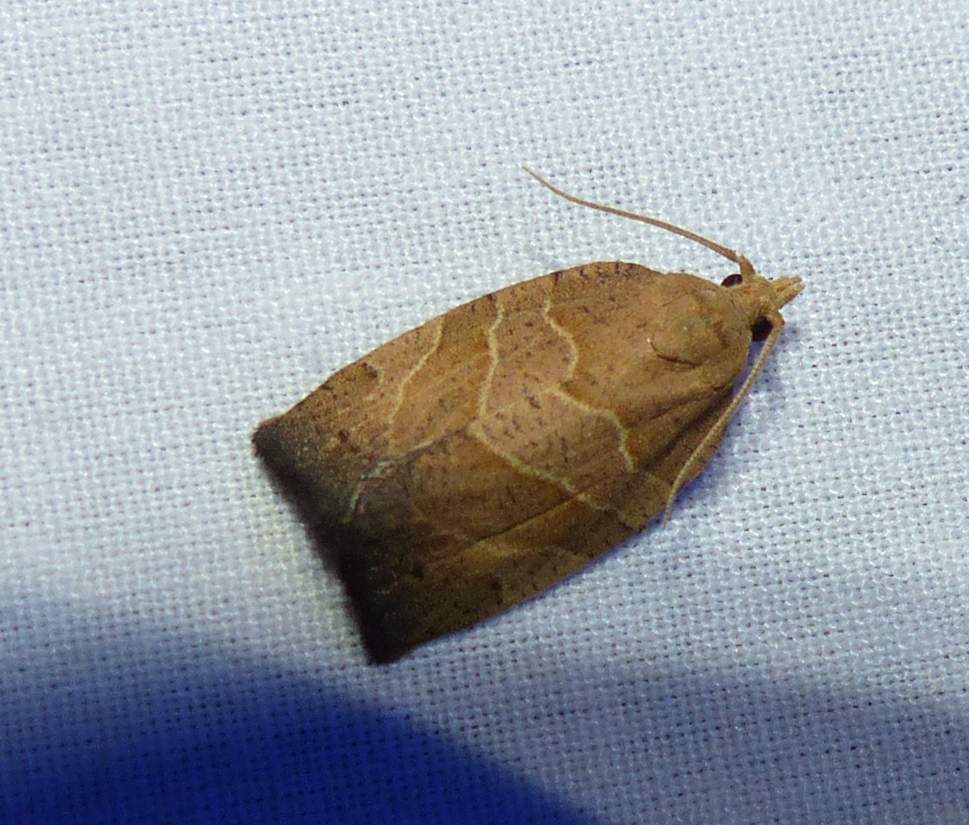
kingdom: Animalia
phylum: Arthropoda
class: Insecta
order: Lepidoptera
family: Tortricidae
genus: Pandemis
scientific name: Pandemis lamprosana
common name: Woodgrain leafroller moth
